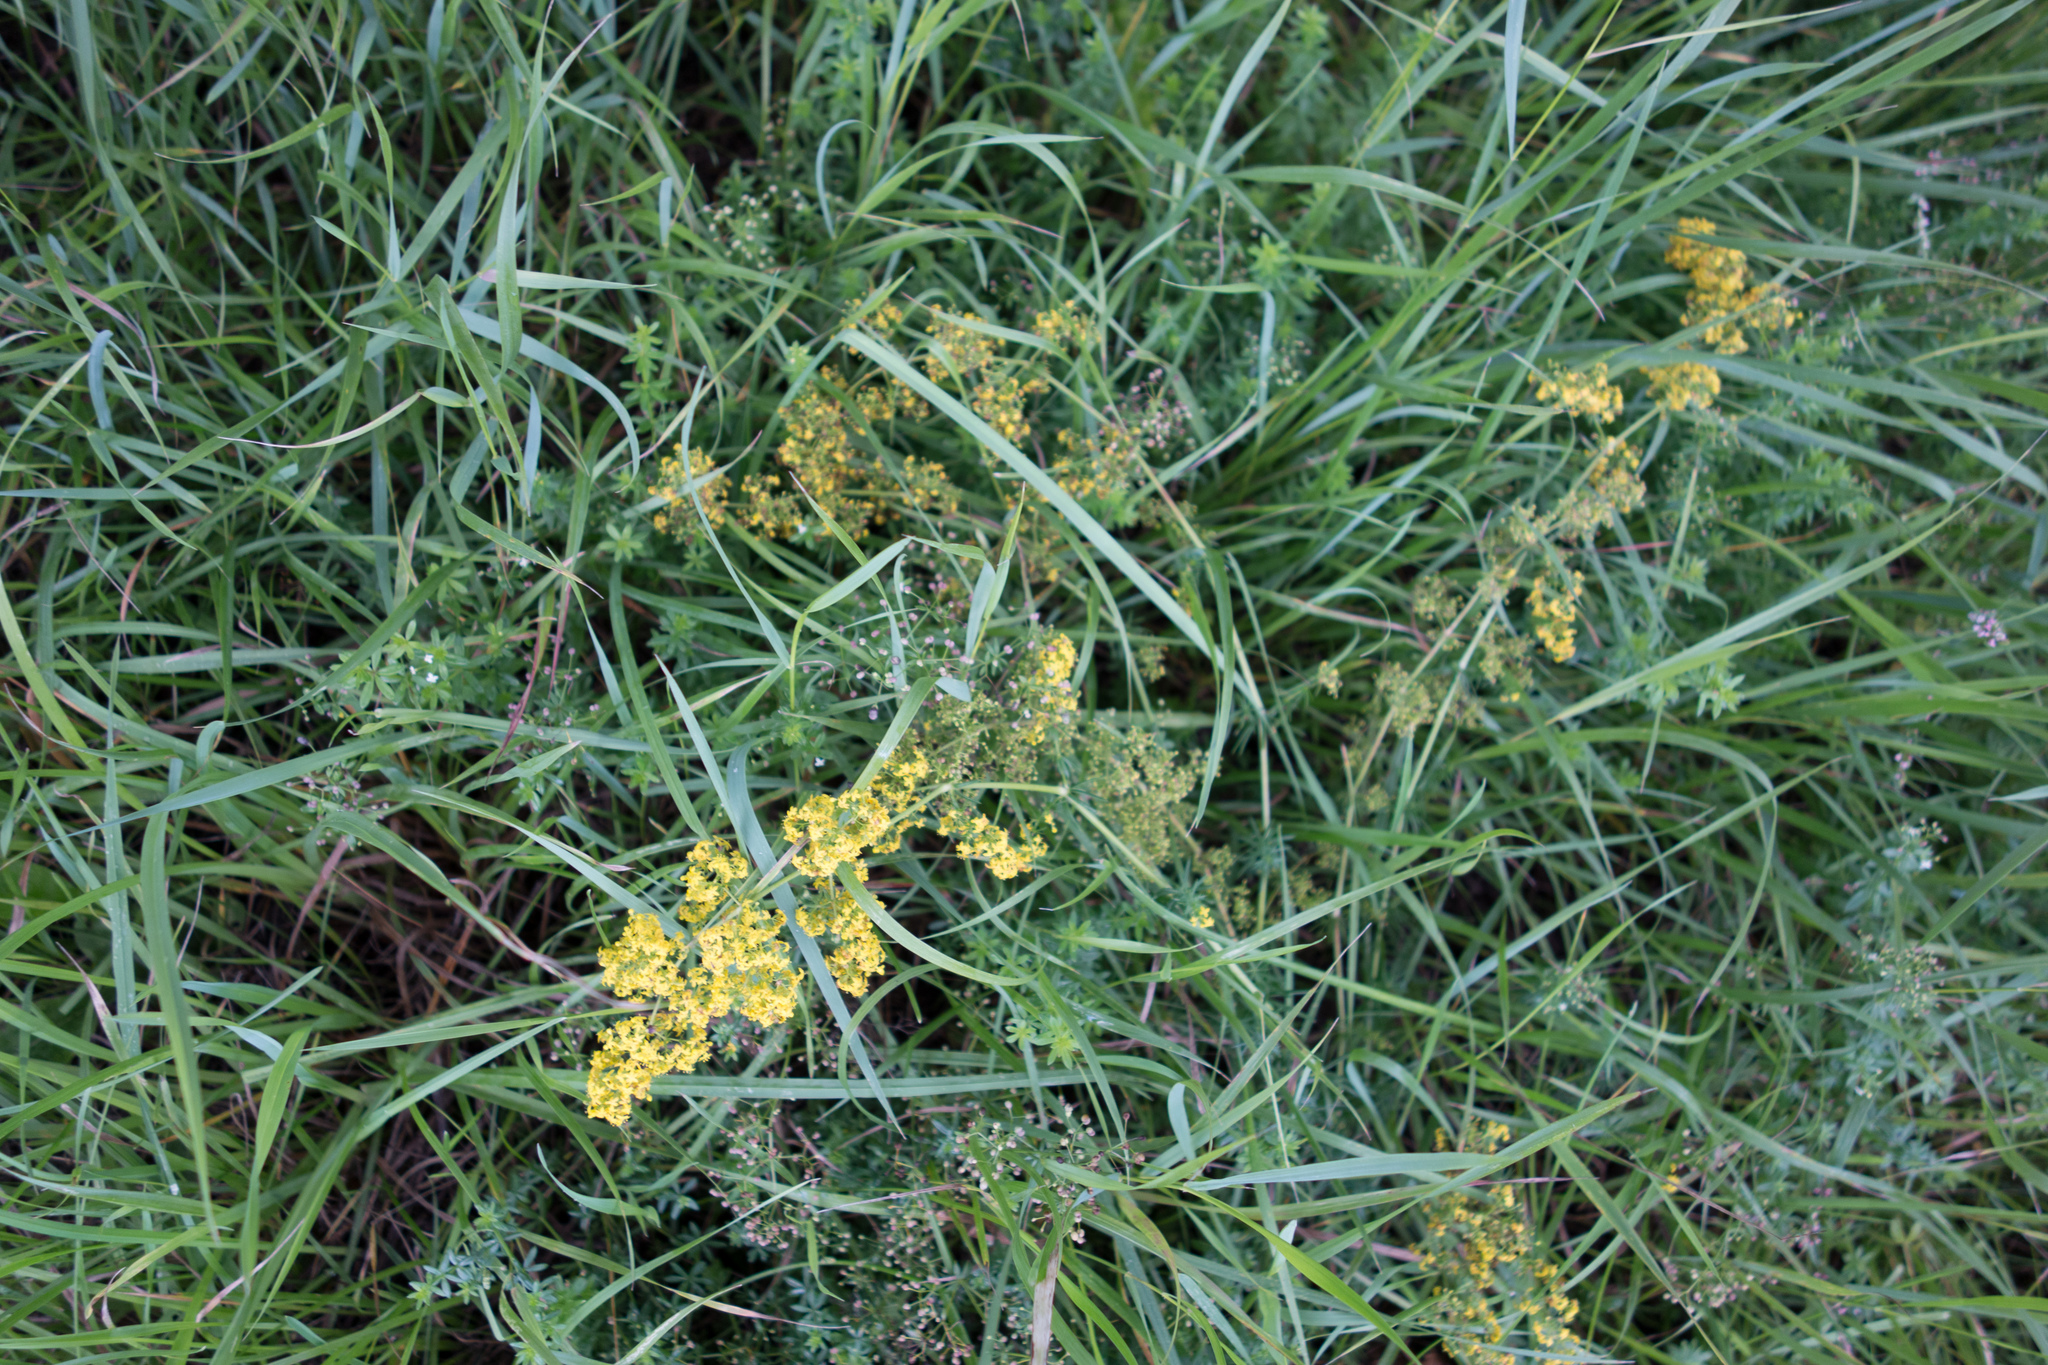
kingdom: Plantae
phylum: Tracheophyta
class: Magnoliopsida
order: Gentianales
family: Rubiaceae
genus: Galium
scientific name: Galium verum
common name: Lady's bedstraw
